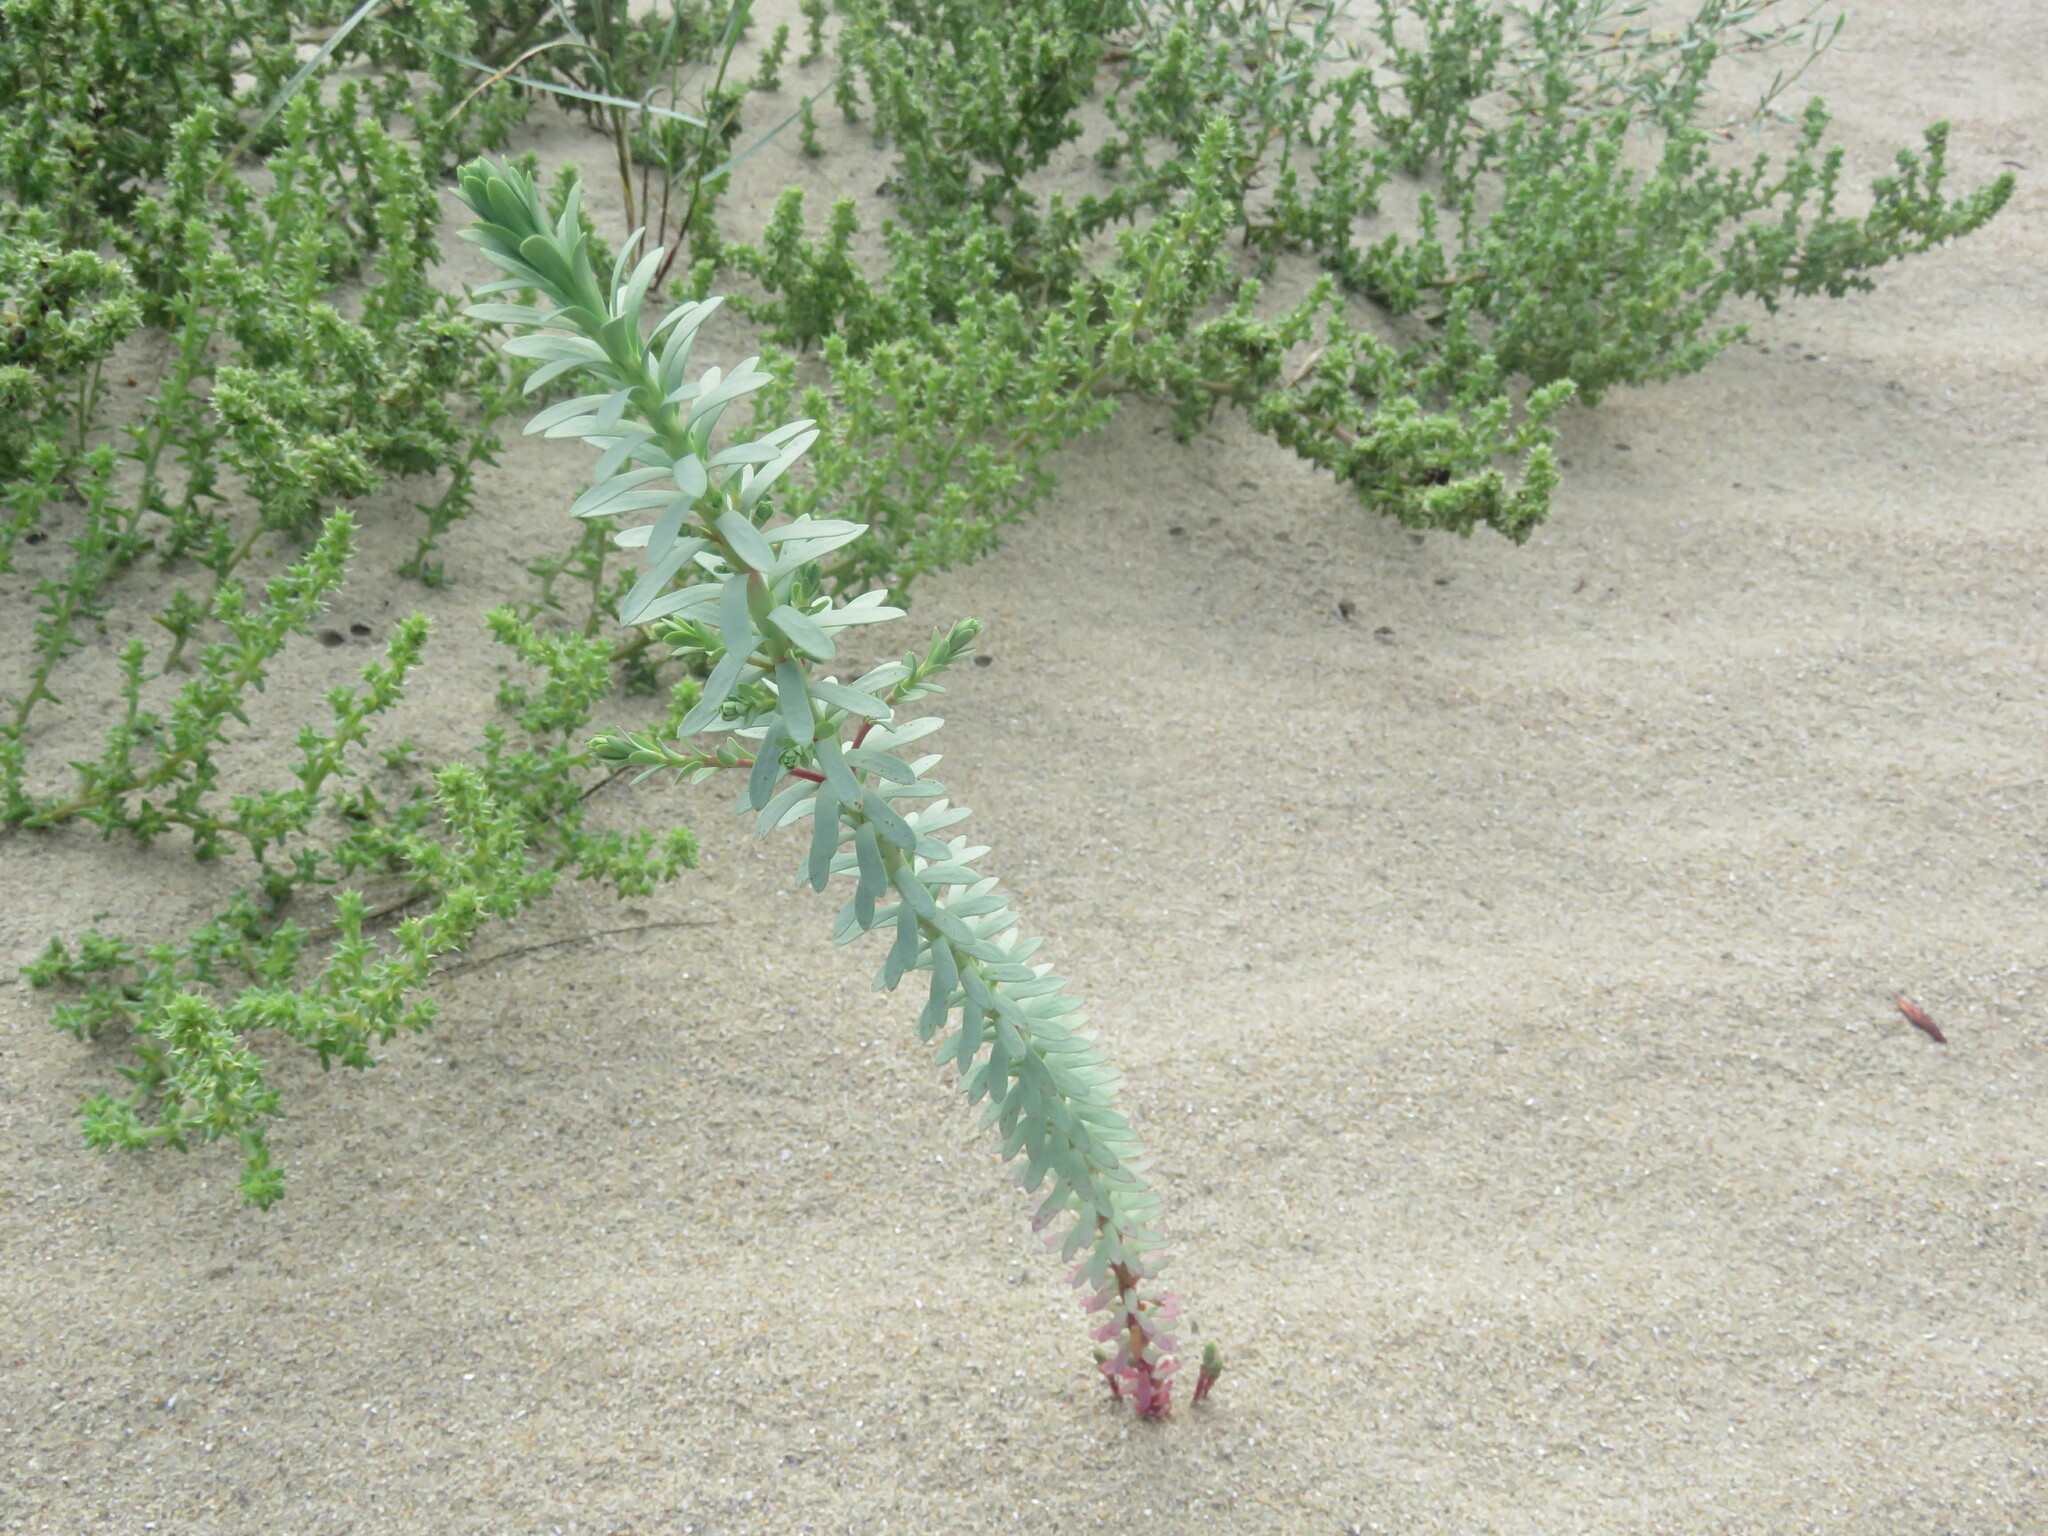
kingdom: Plantae
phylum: Tracheophyta
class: Magnoliopsida
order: Malpighiales
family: Euphorbiaceae
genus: Euphorbia
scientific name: Euphorbia paralias
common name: Sea spurge
